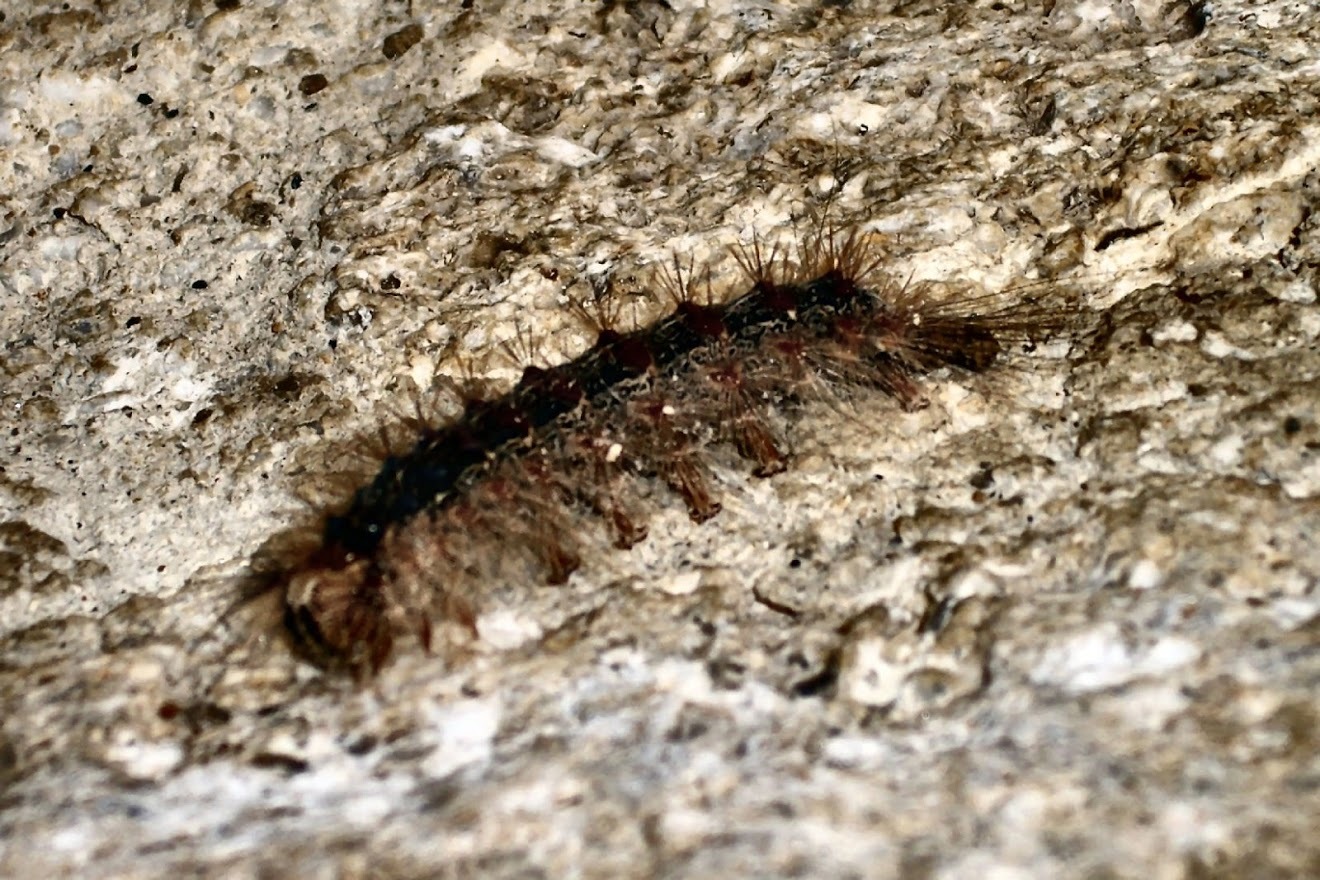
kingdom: Animalia
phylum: Arthropoda
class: Insecta
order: Lepidoptera
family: Erebidae
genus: Lymantria
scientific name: Lymantria dispar
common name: Gypsy moth
